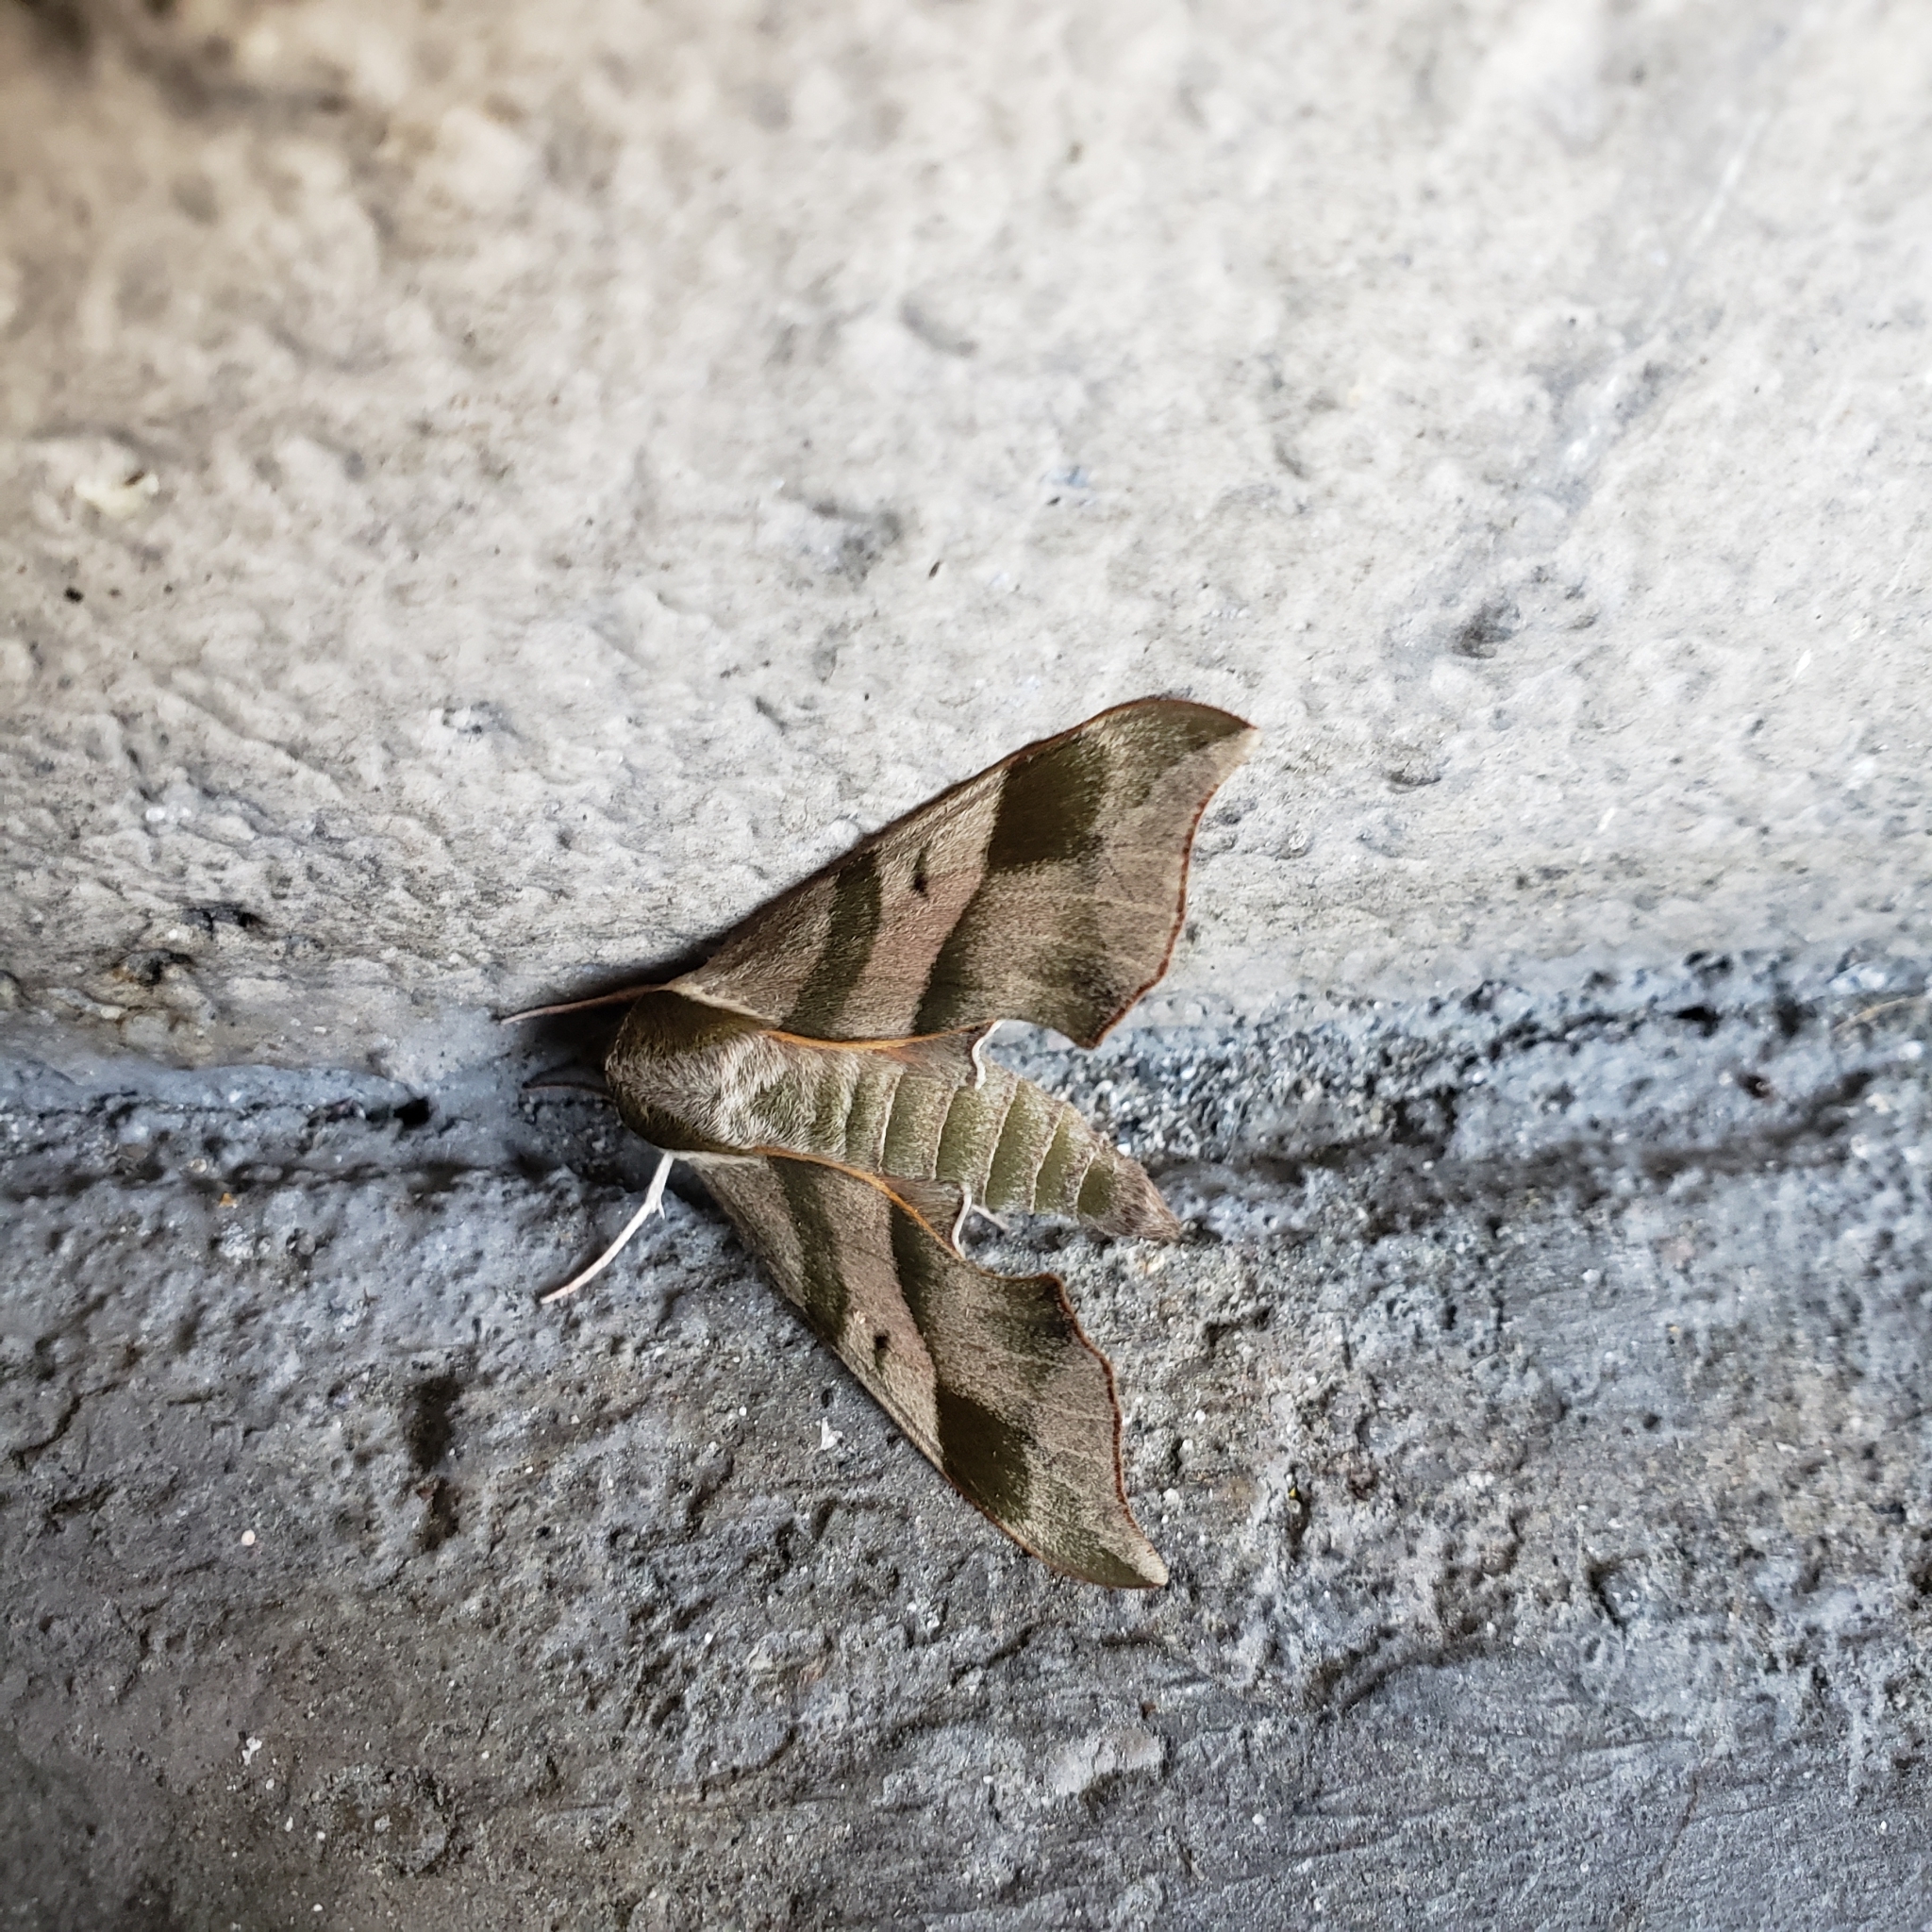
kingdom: Animalia
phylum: Arthropoda
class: Insecta
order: Lepidoptera
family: Sphingidae
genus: Darapsa
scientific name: Darapsa myron
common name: Hog sphinx
